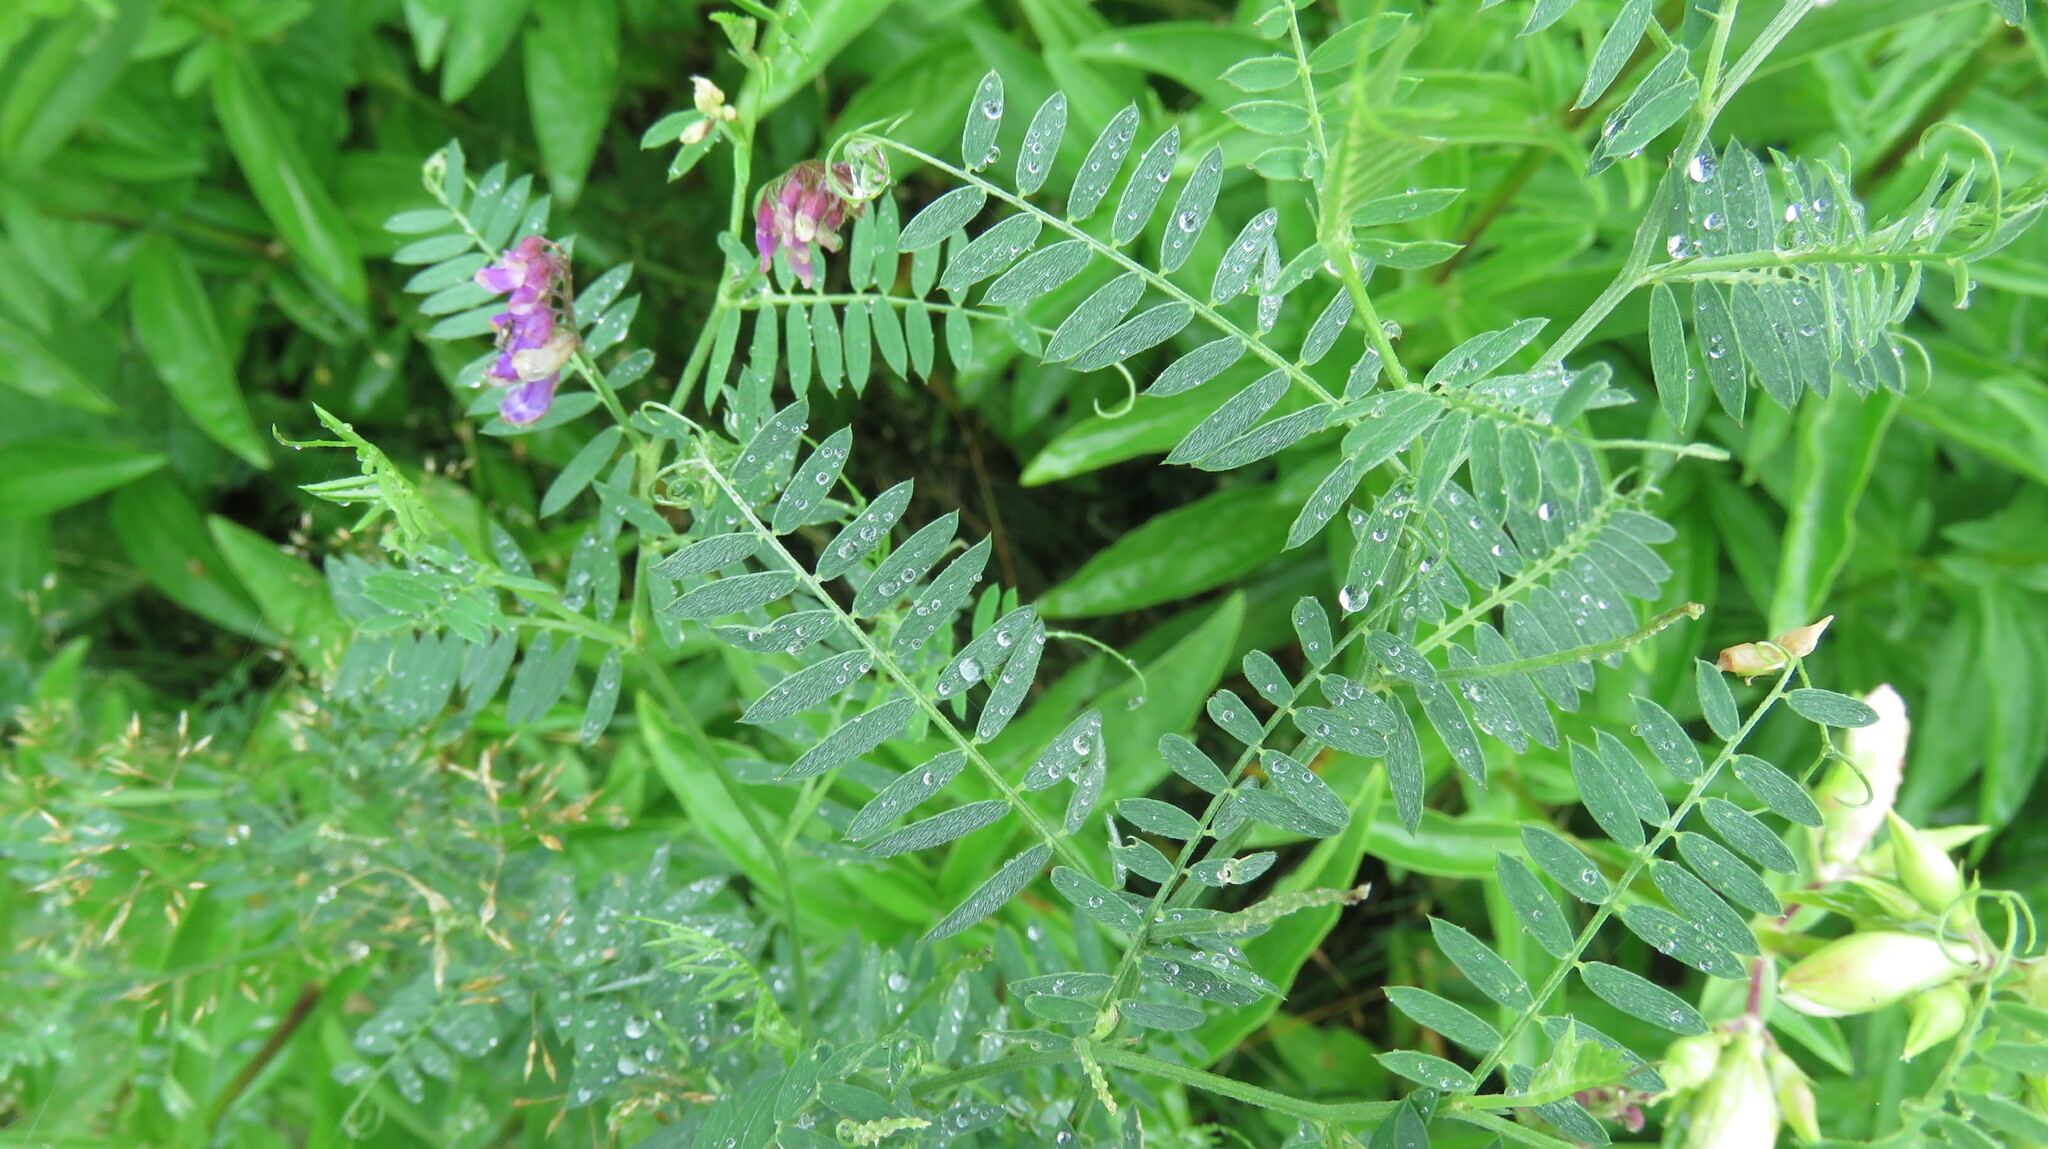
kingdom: Plantae
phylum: Tracheophyta
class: Magnoliopsida
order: Fabales
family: Fabaceae
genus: Vicia
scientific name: Vicia cracca
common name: Bird vetch
